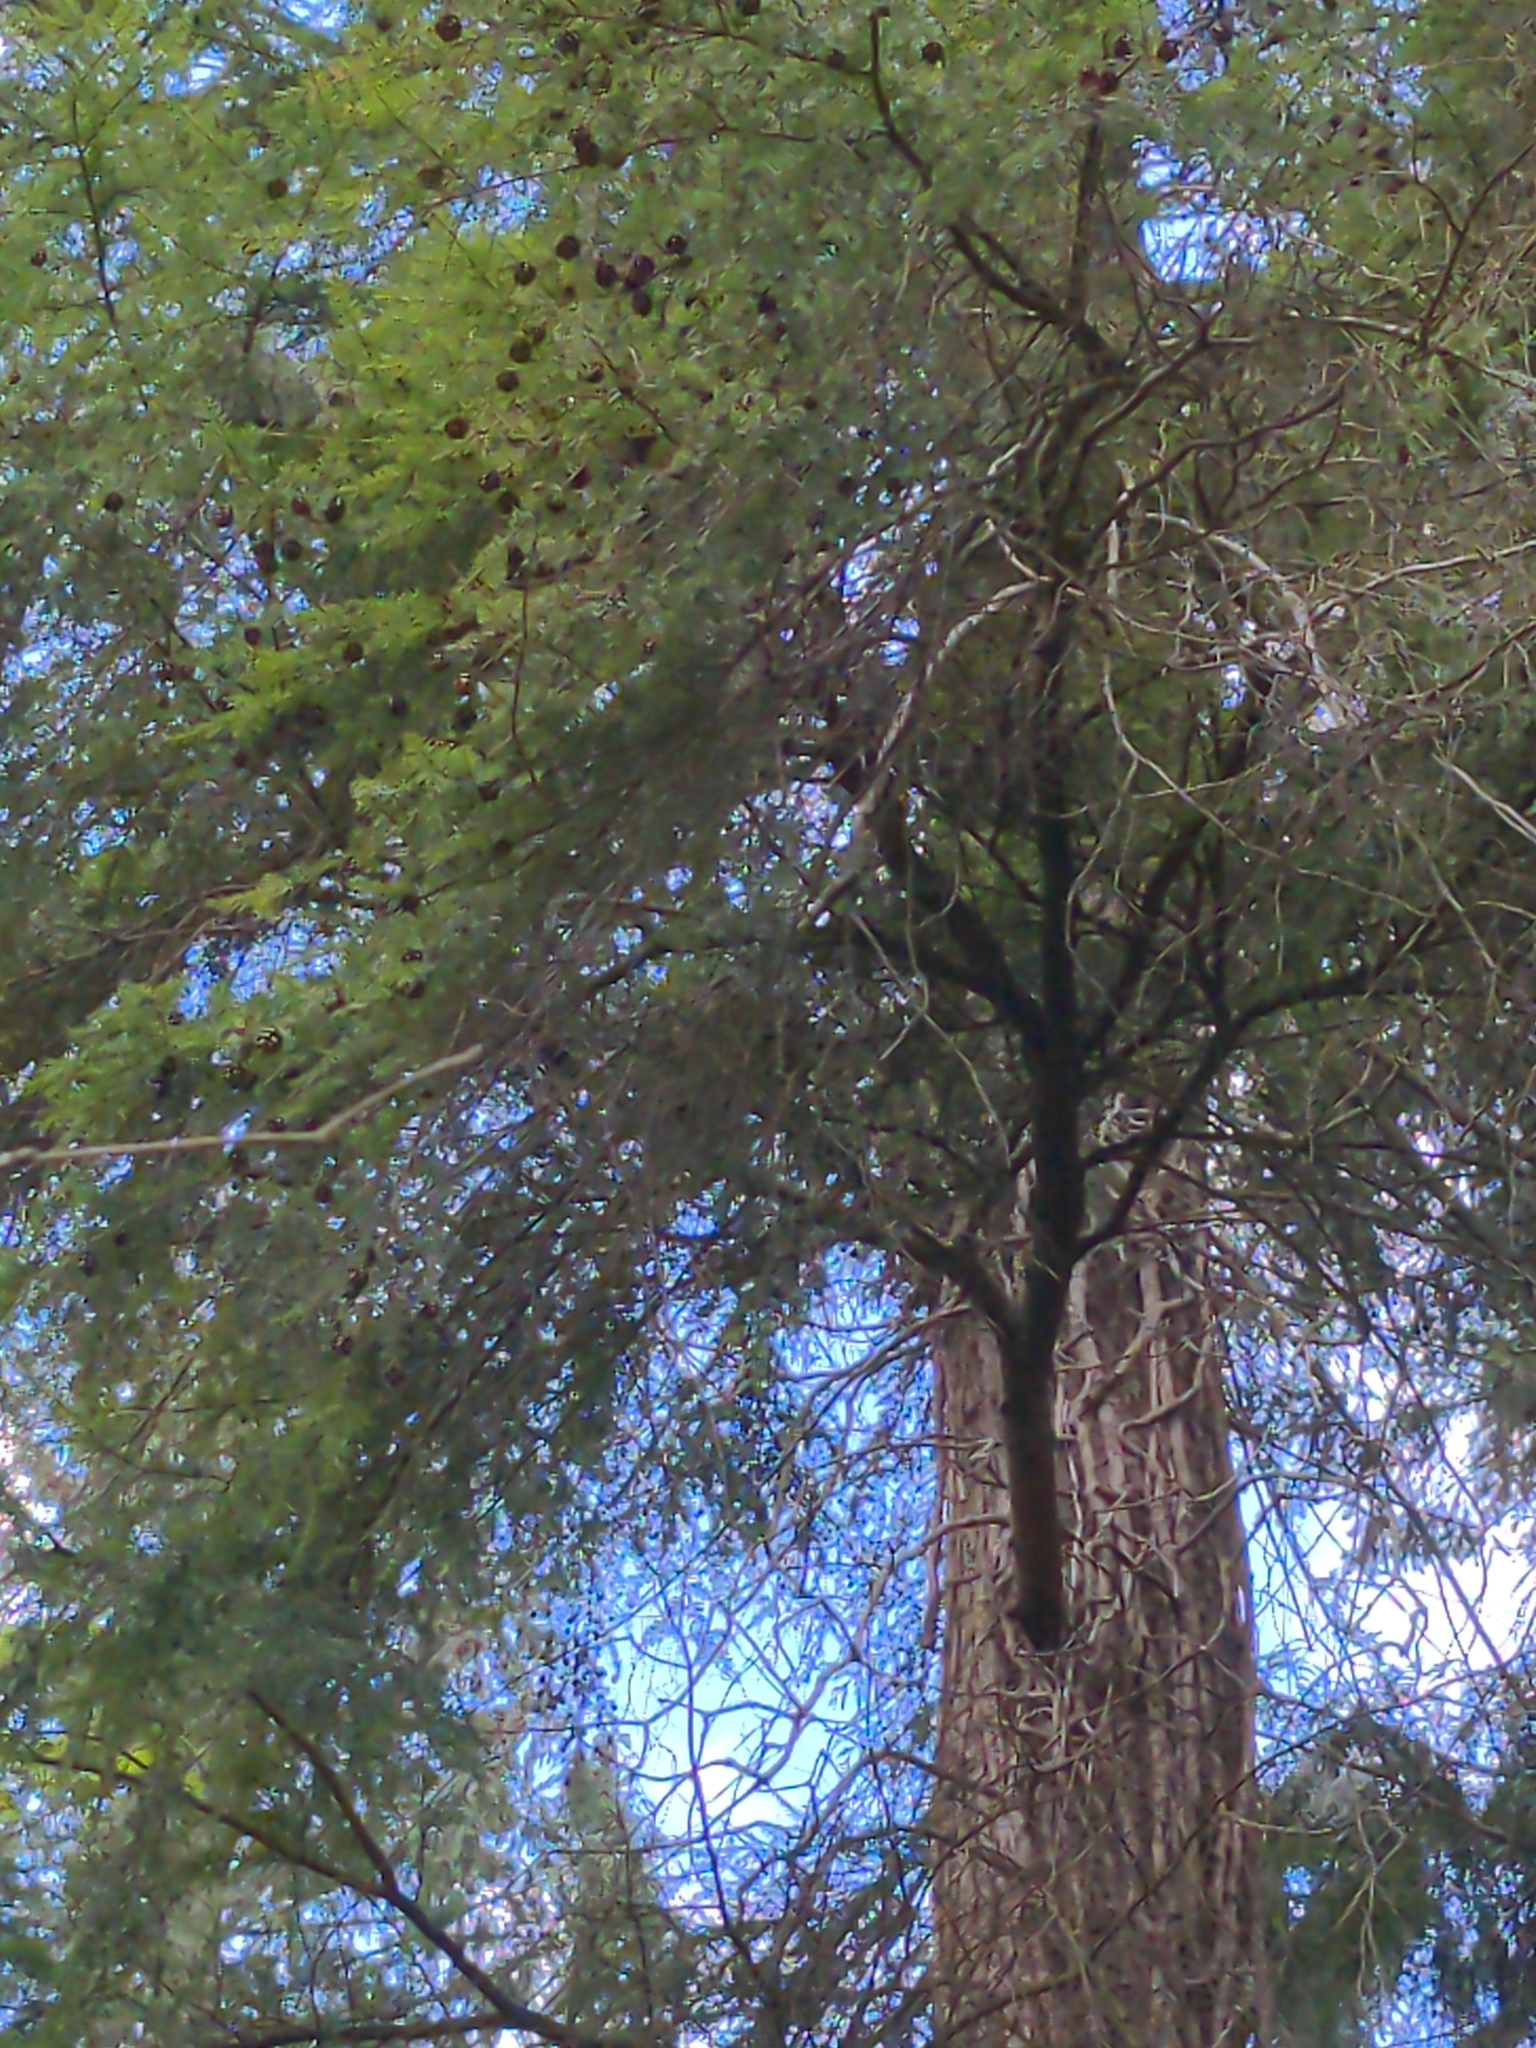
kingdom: Plantae
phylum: Tracheophyta
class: Pinopsida
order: Pinales
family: Pinaceae
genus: Tsuga
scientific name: Tsuga heterophylla
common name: Western hemlock
